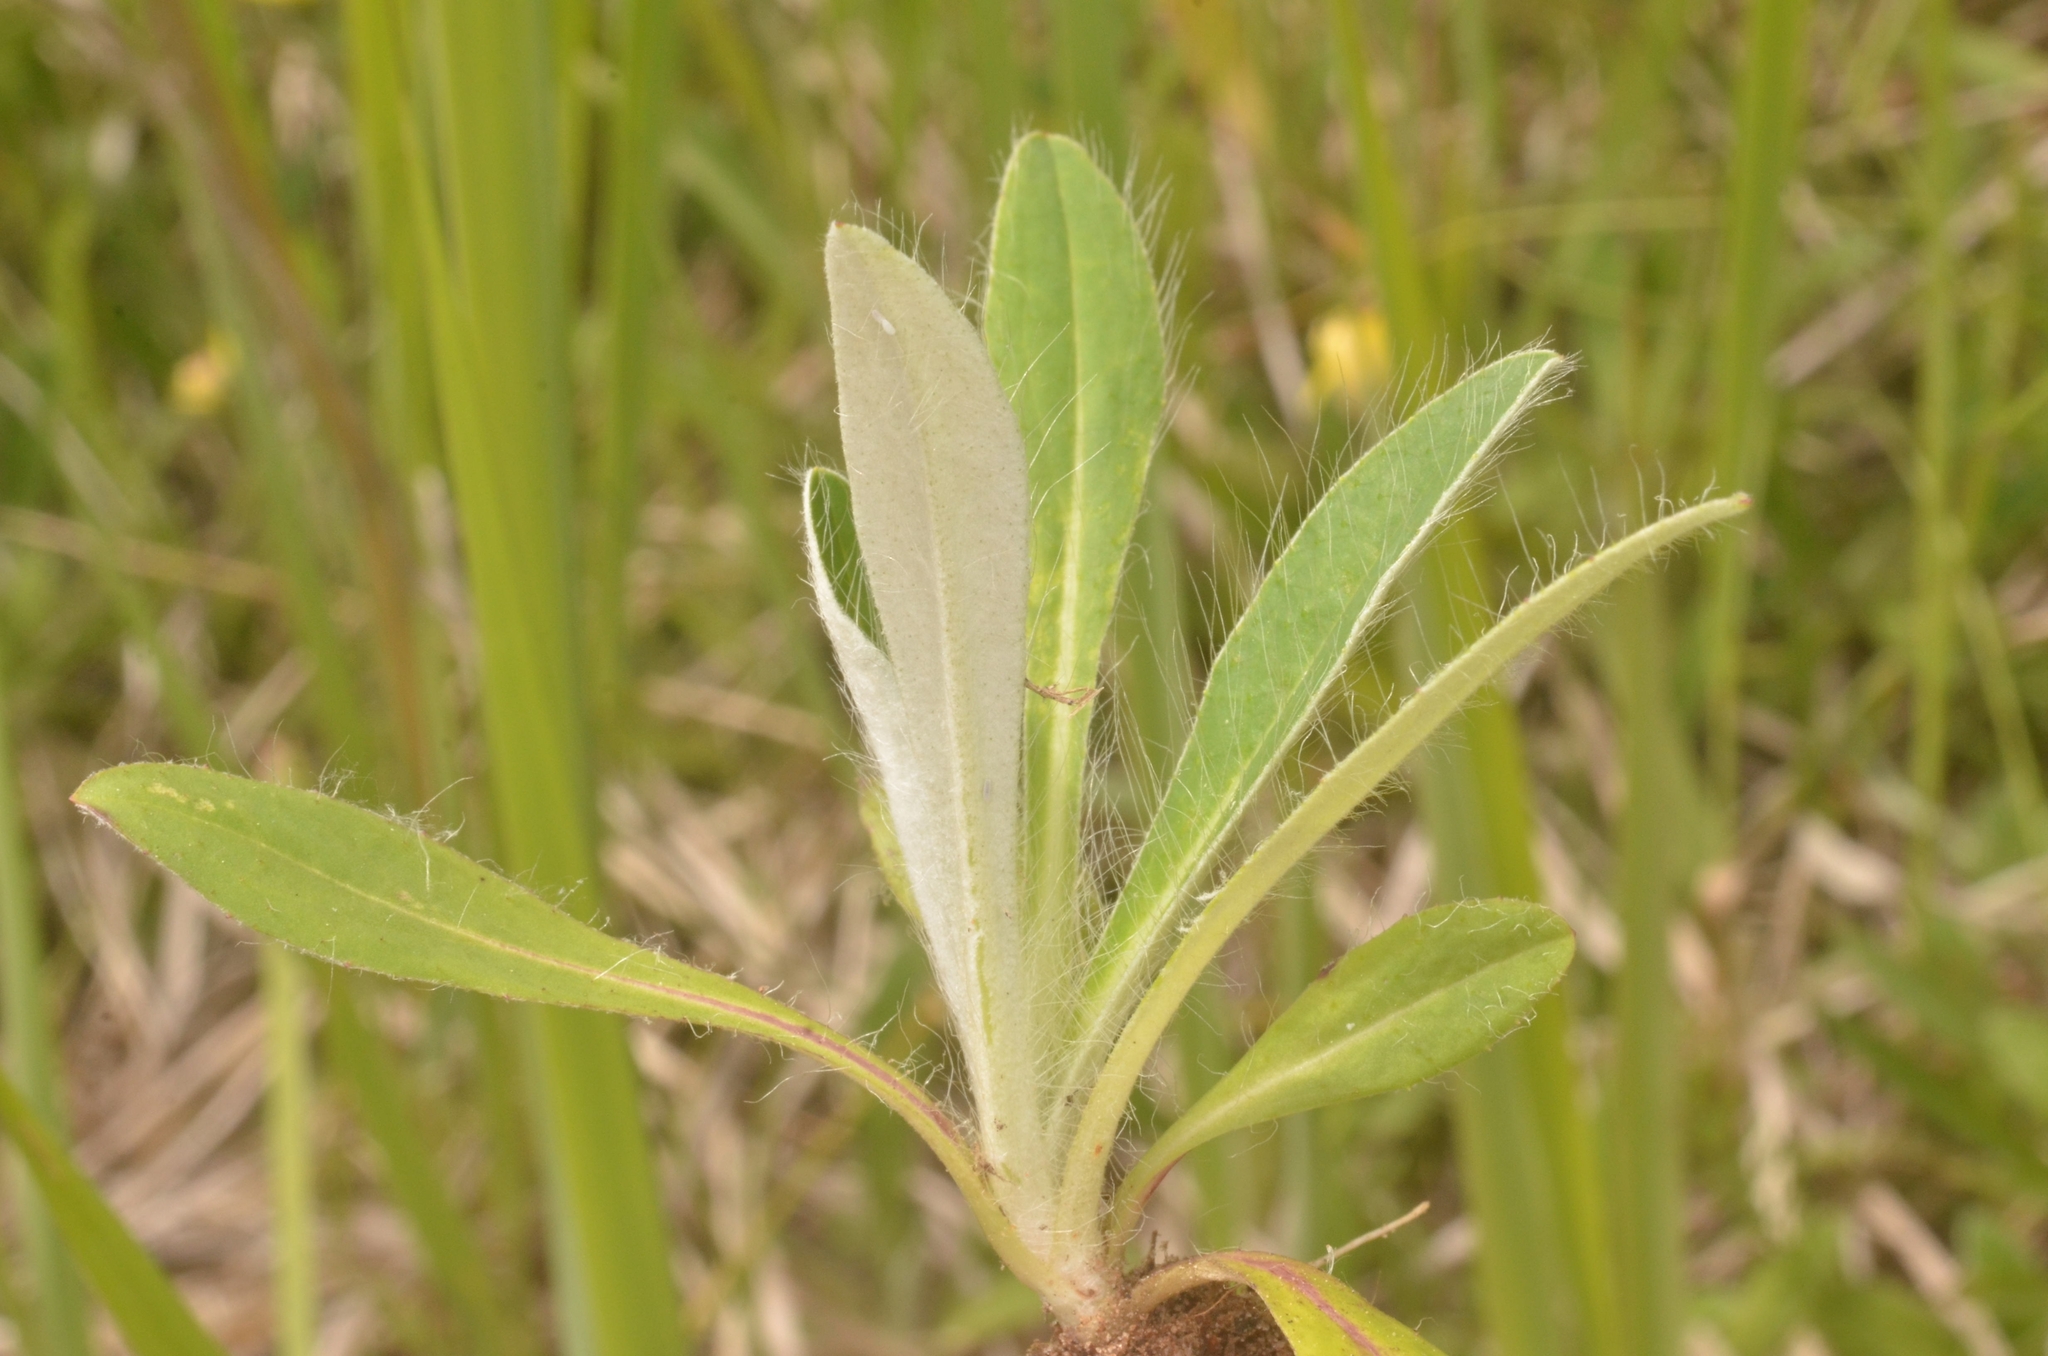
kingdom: Plantae
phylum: Tracheophyta
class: Magnoliopsida
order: Asterales
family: Asteraceae
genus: Pilosella
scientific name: Pilosella officinarum
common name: Mouse-ear hawkweed
